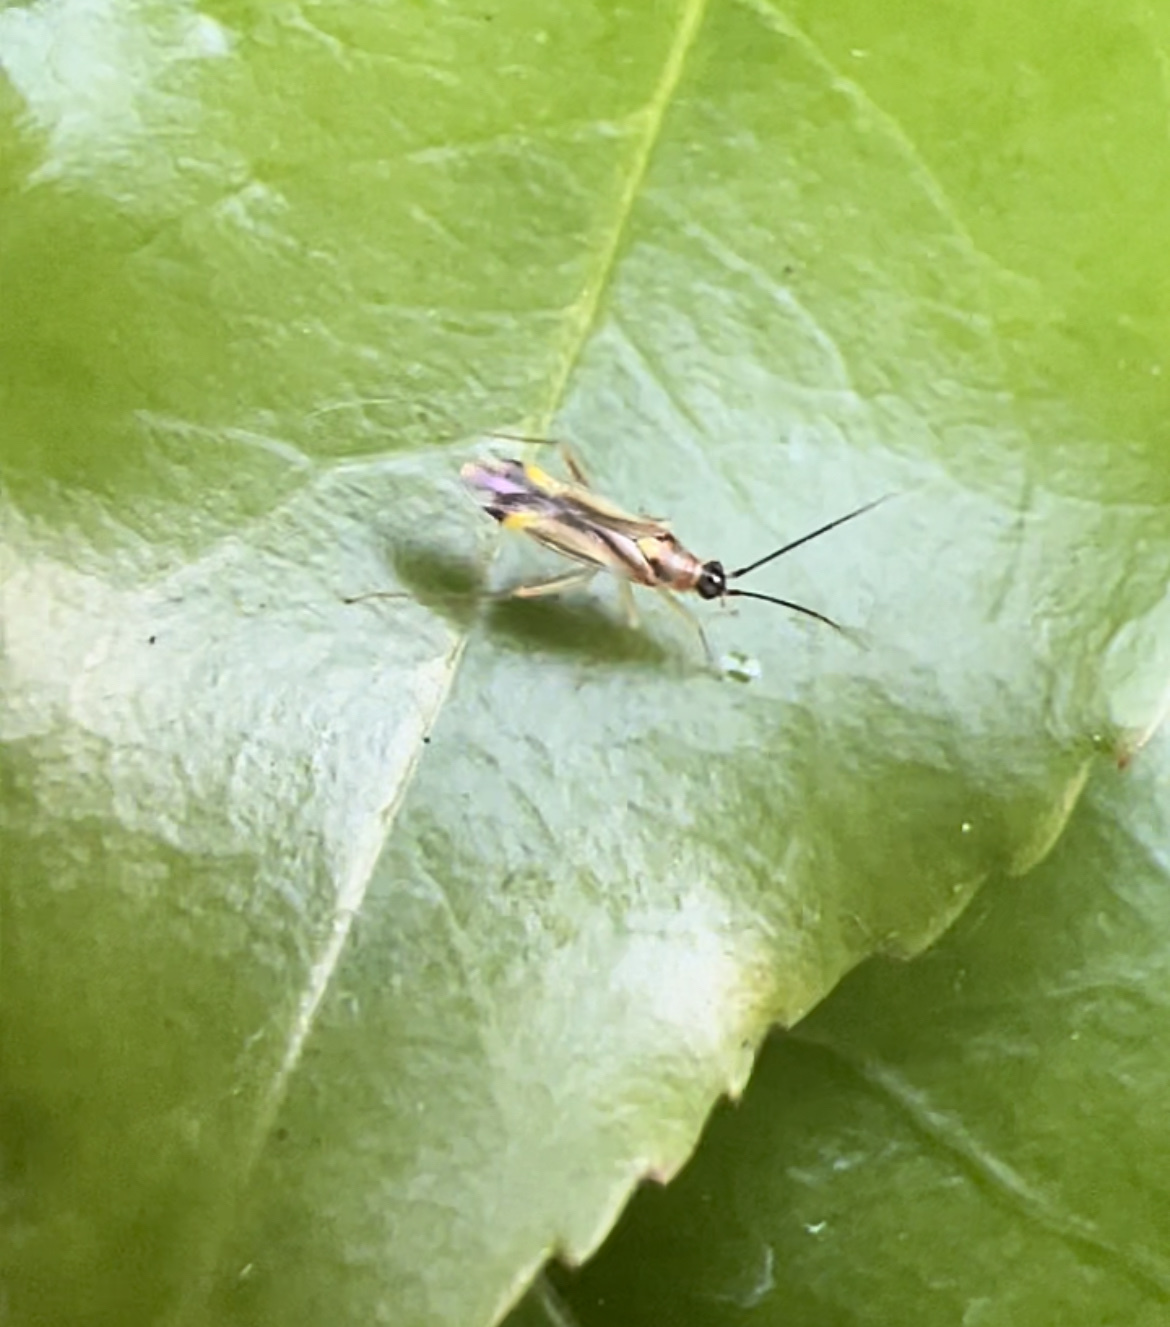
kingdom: Animalia
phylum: Arthropoda
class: Insecta
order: Hemiptera
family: Miridae
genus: Campyloneura
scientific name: Campyloneura virgula
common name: Predatory bug
